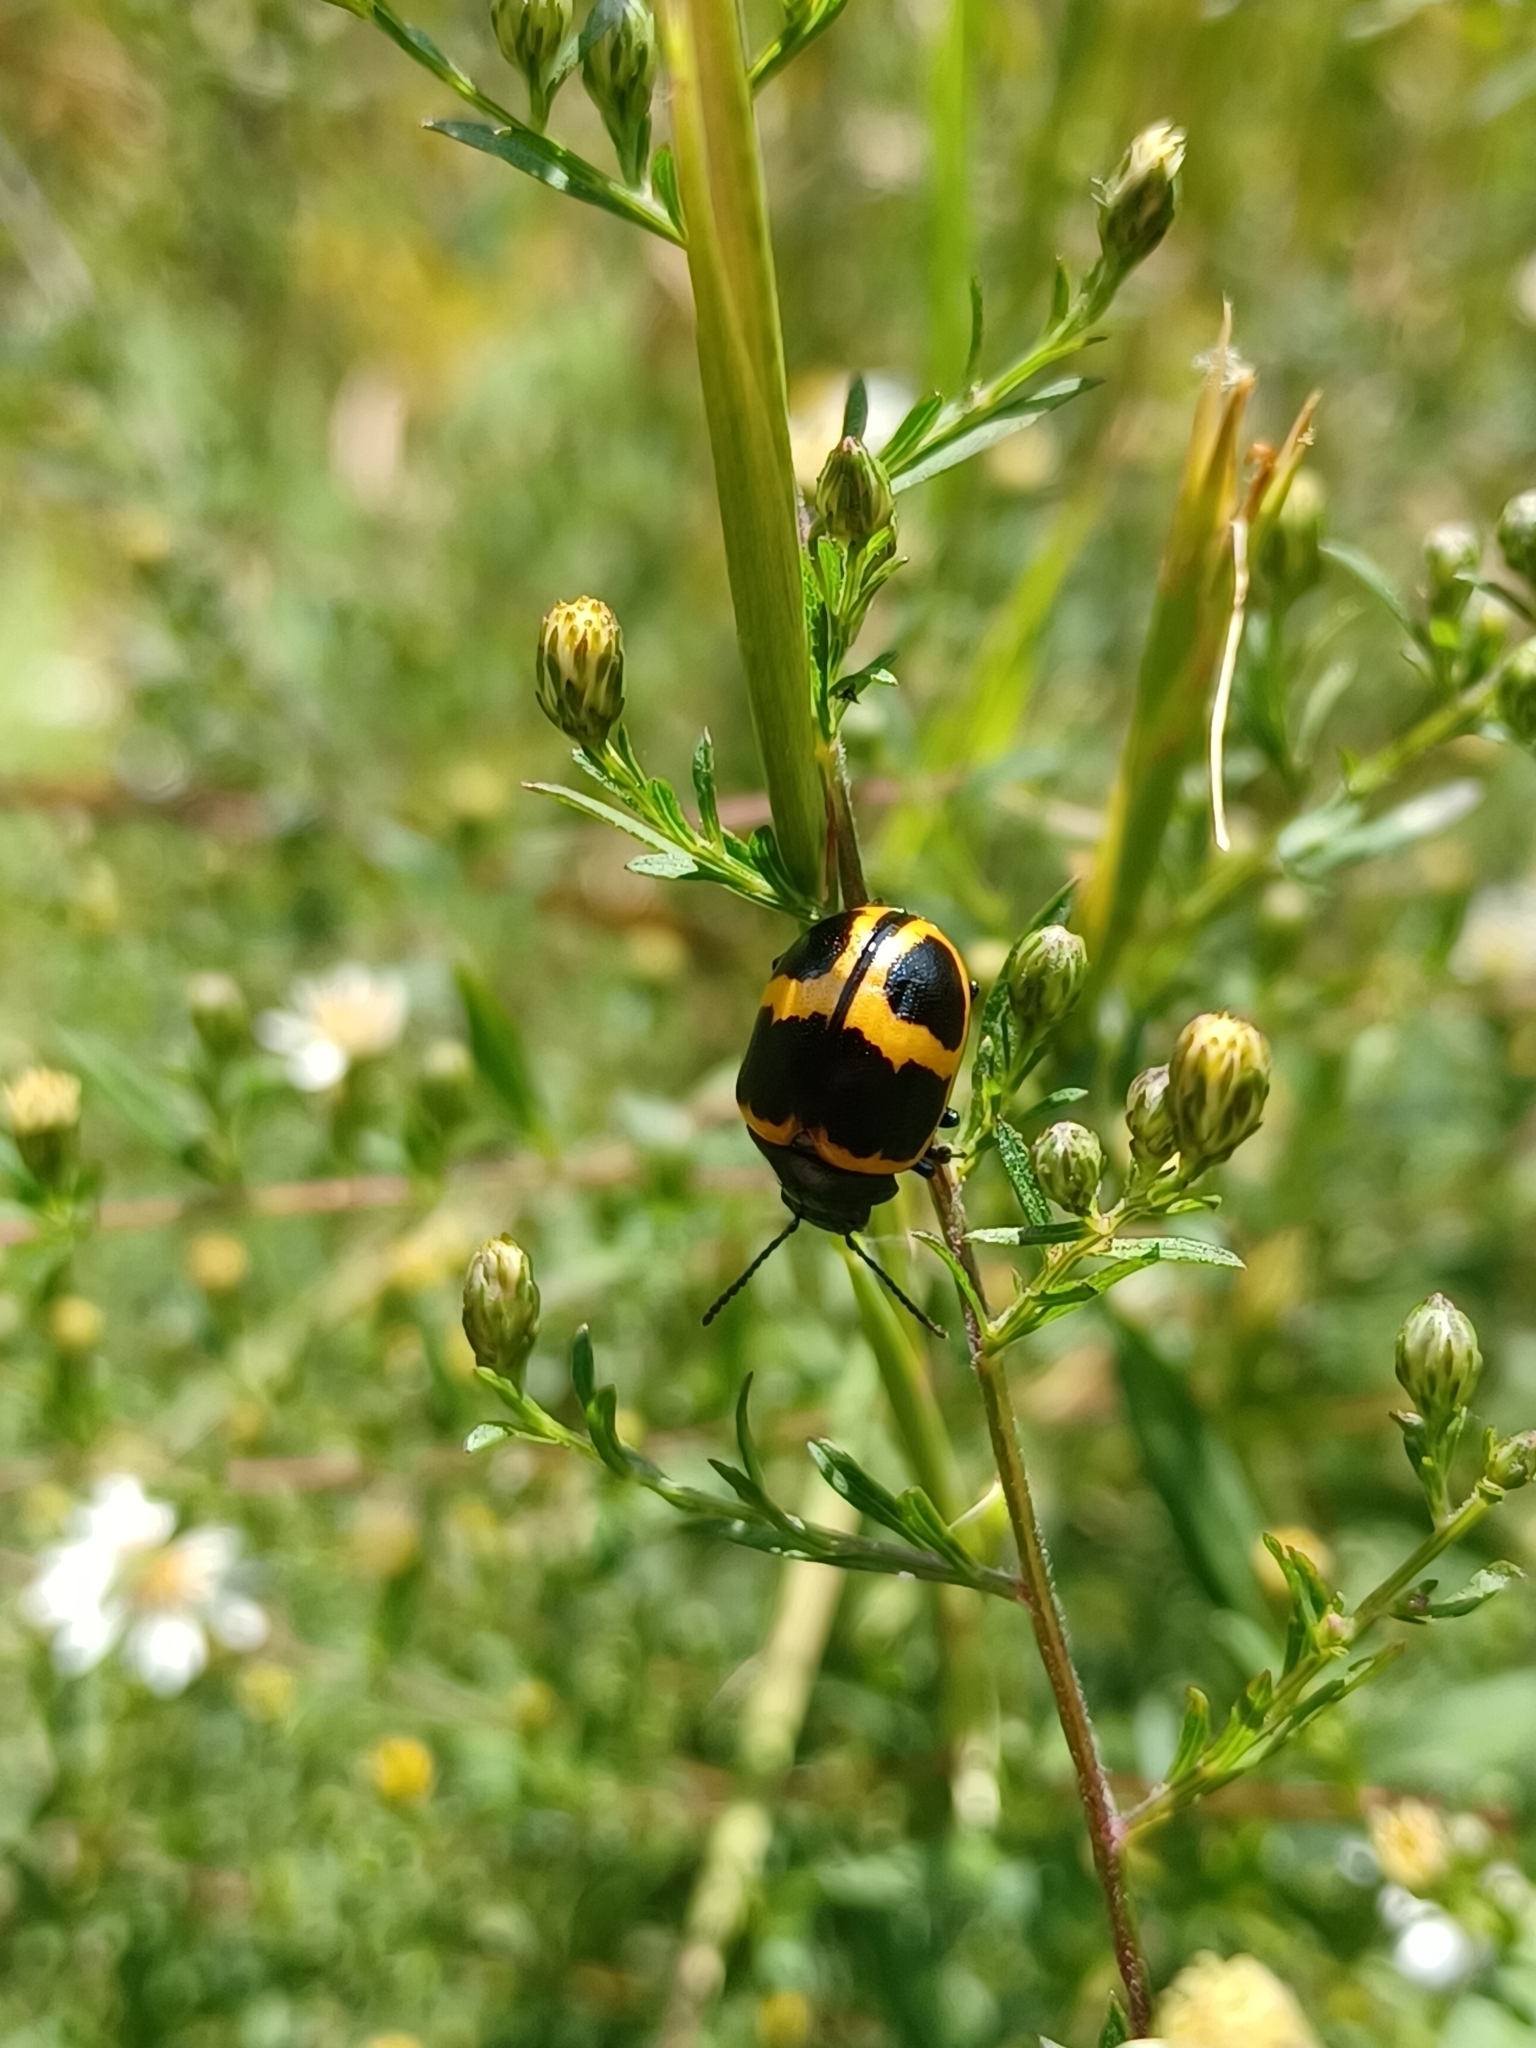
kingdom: Animalia
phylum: Arthropoda
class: Insecta
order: Coleoptera
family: Chrysomelidae
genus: Labidomera
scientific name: Labidomera clivicollis
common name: Swamp milkweed leaf beetle
